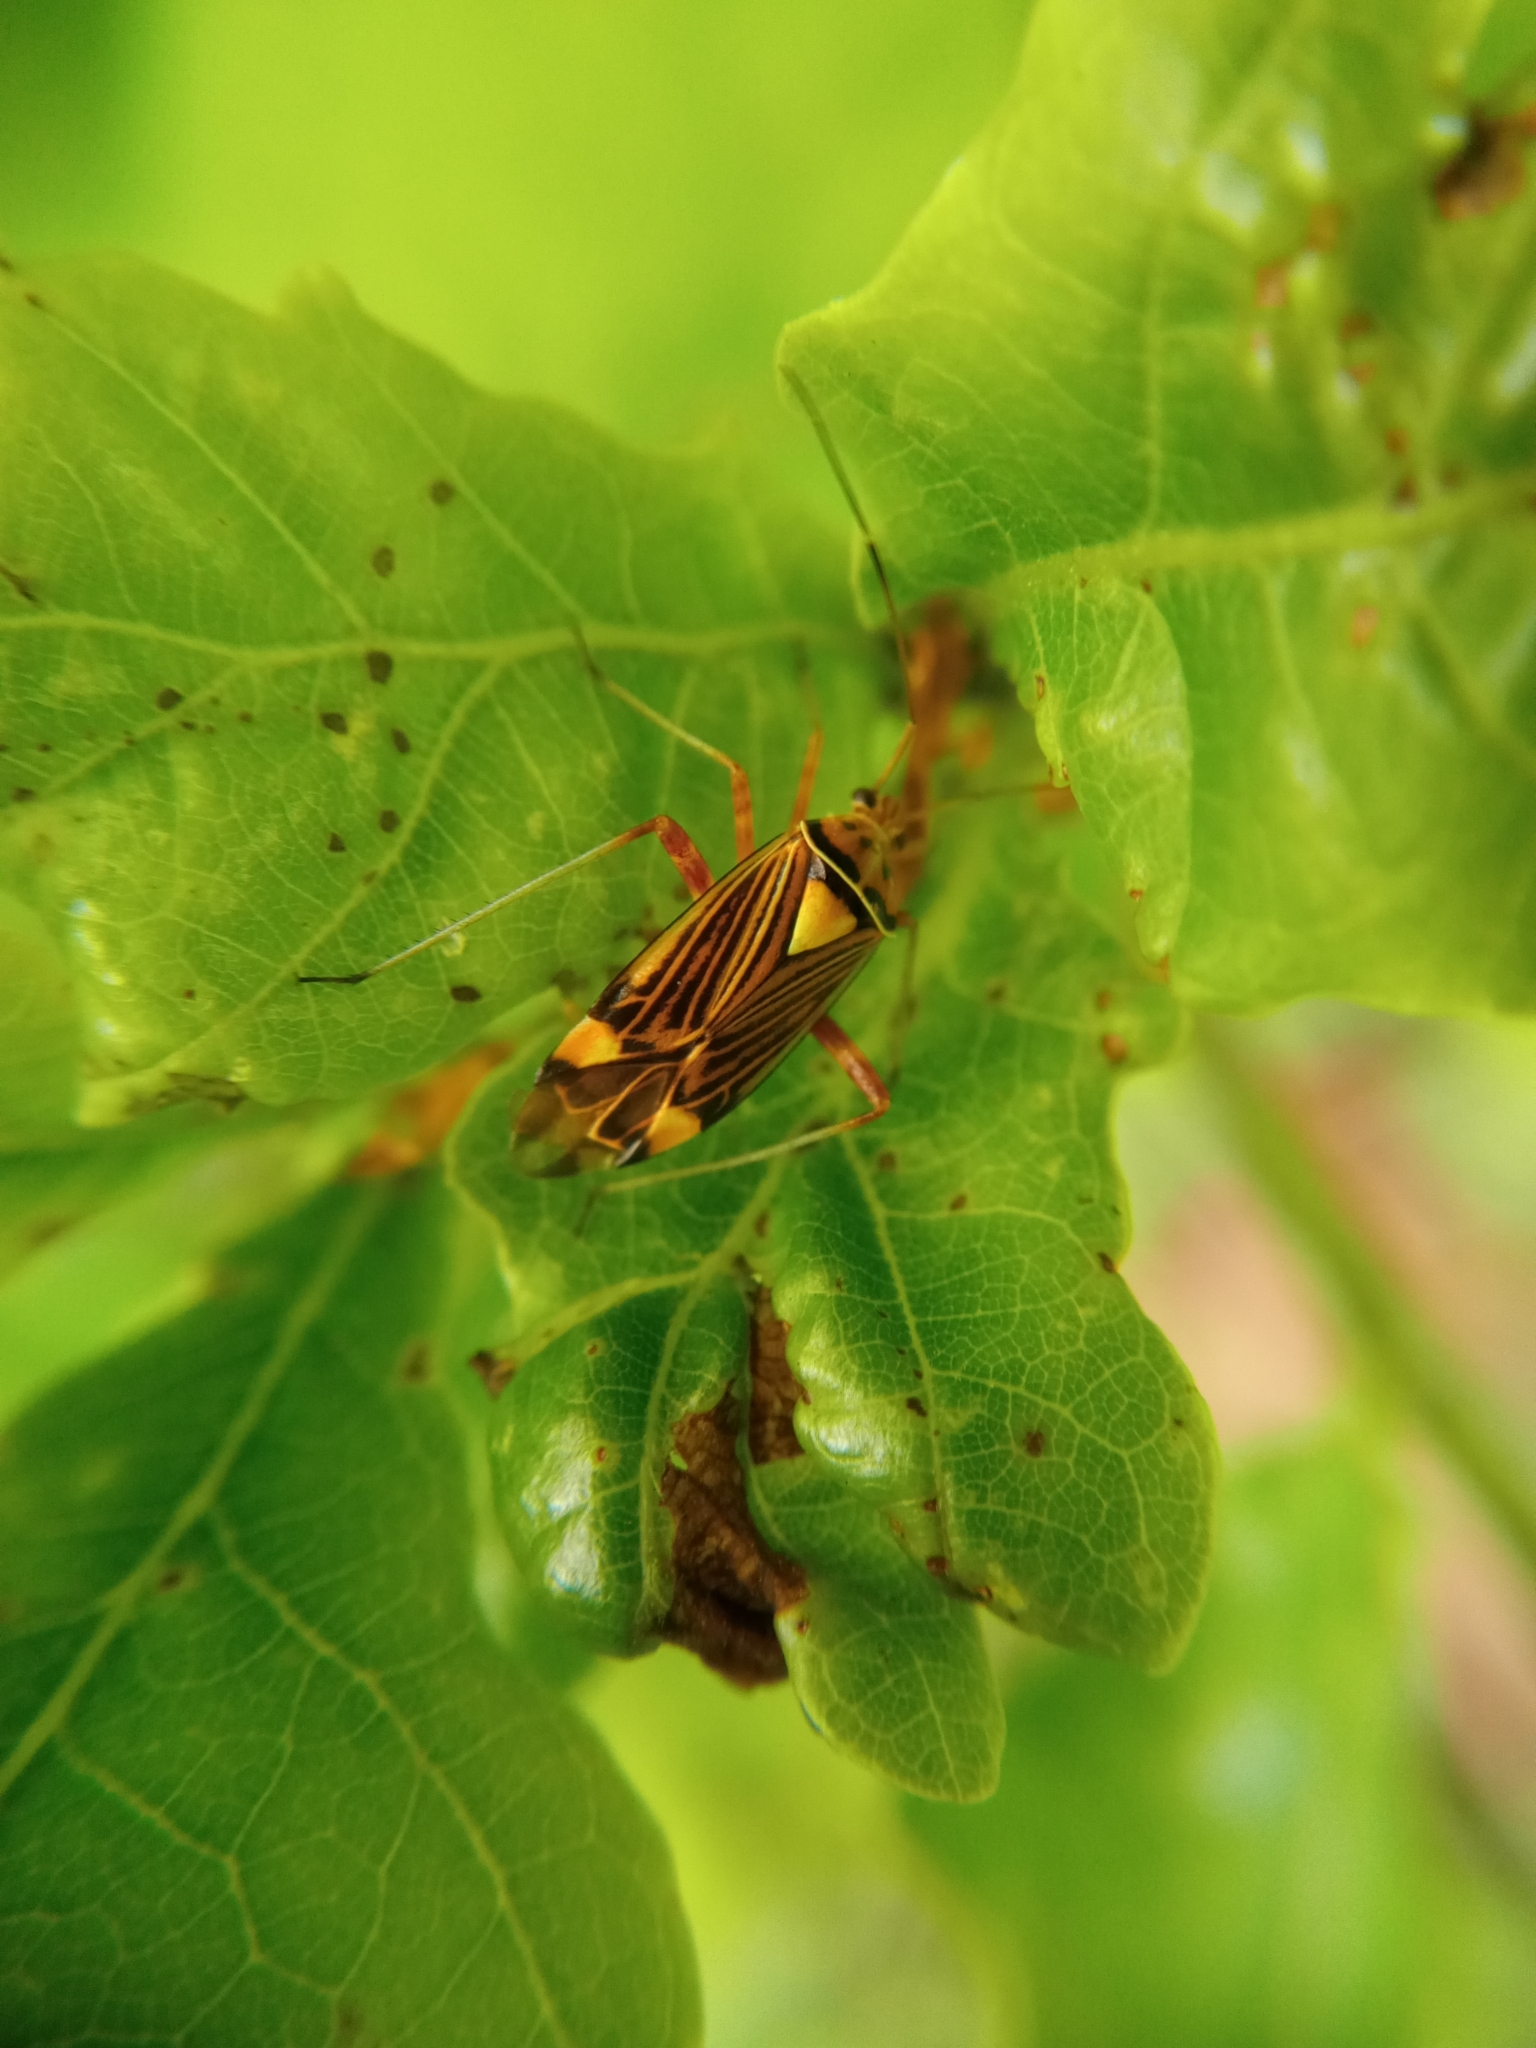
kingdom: Animalia
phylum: Arthropoda
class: Insecta
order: Hemiptera
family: Miridae
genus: Rhabdomiris
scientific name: Rhabdomiris striatellus
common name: Plant bug
